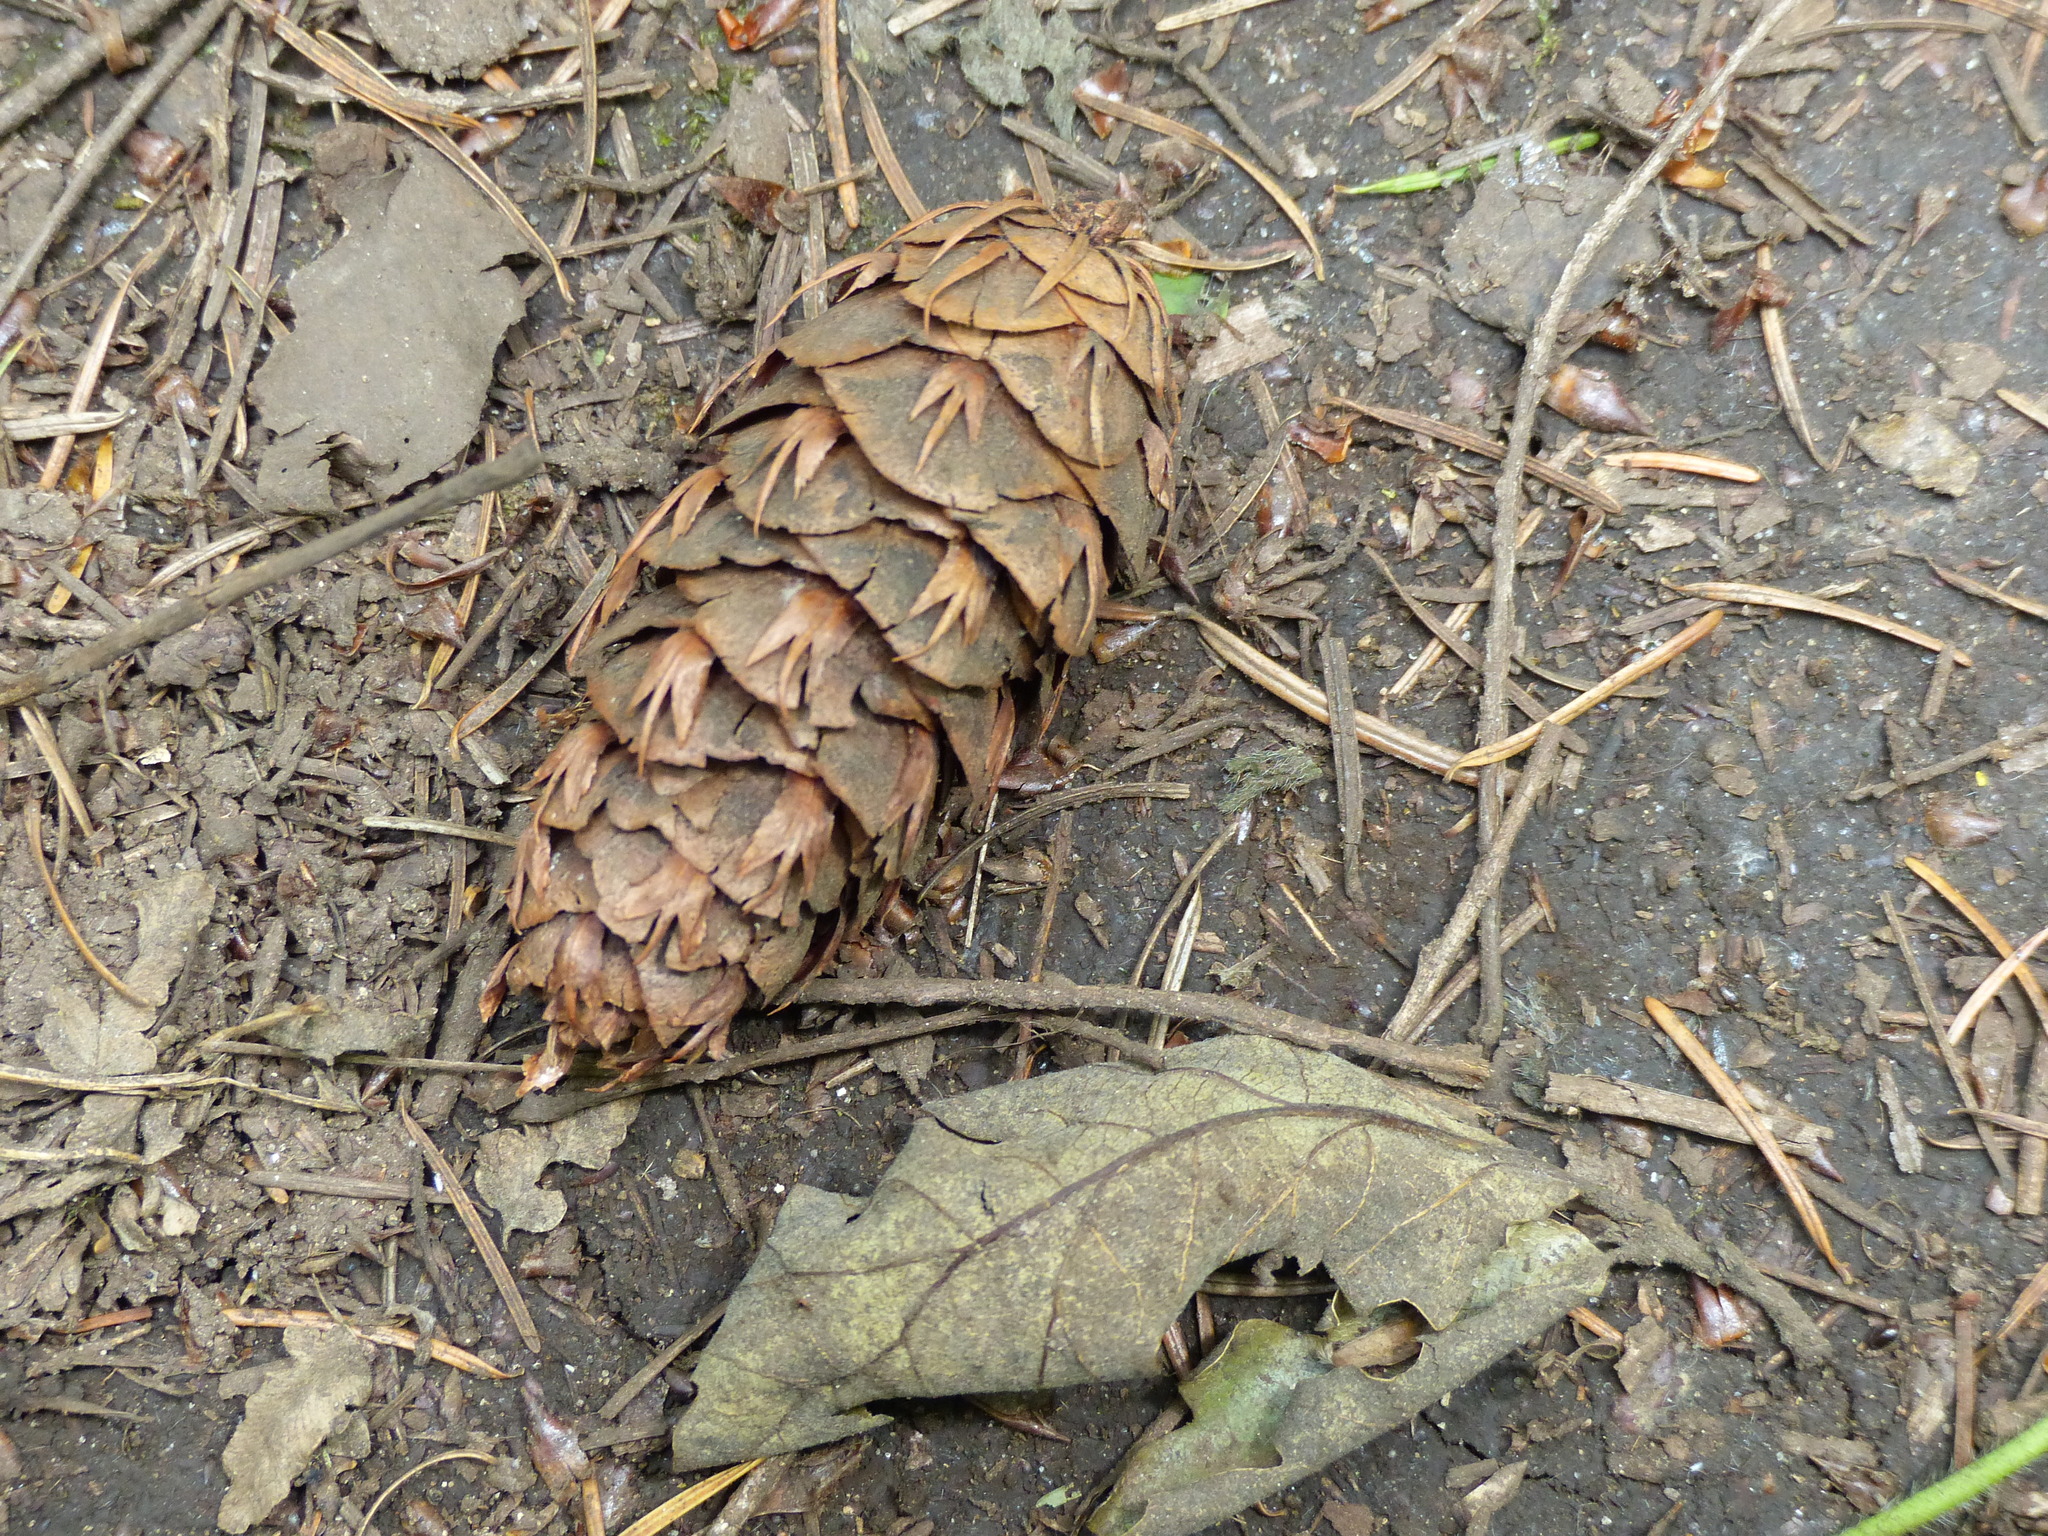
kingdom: Plantae
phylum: Tracheophyta
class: Pinopsida
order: Pinales
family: Pinaceae
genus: Pseudotsuga
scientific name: Pseudotsuga menziesii
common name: Douglas fir
